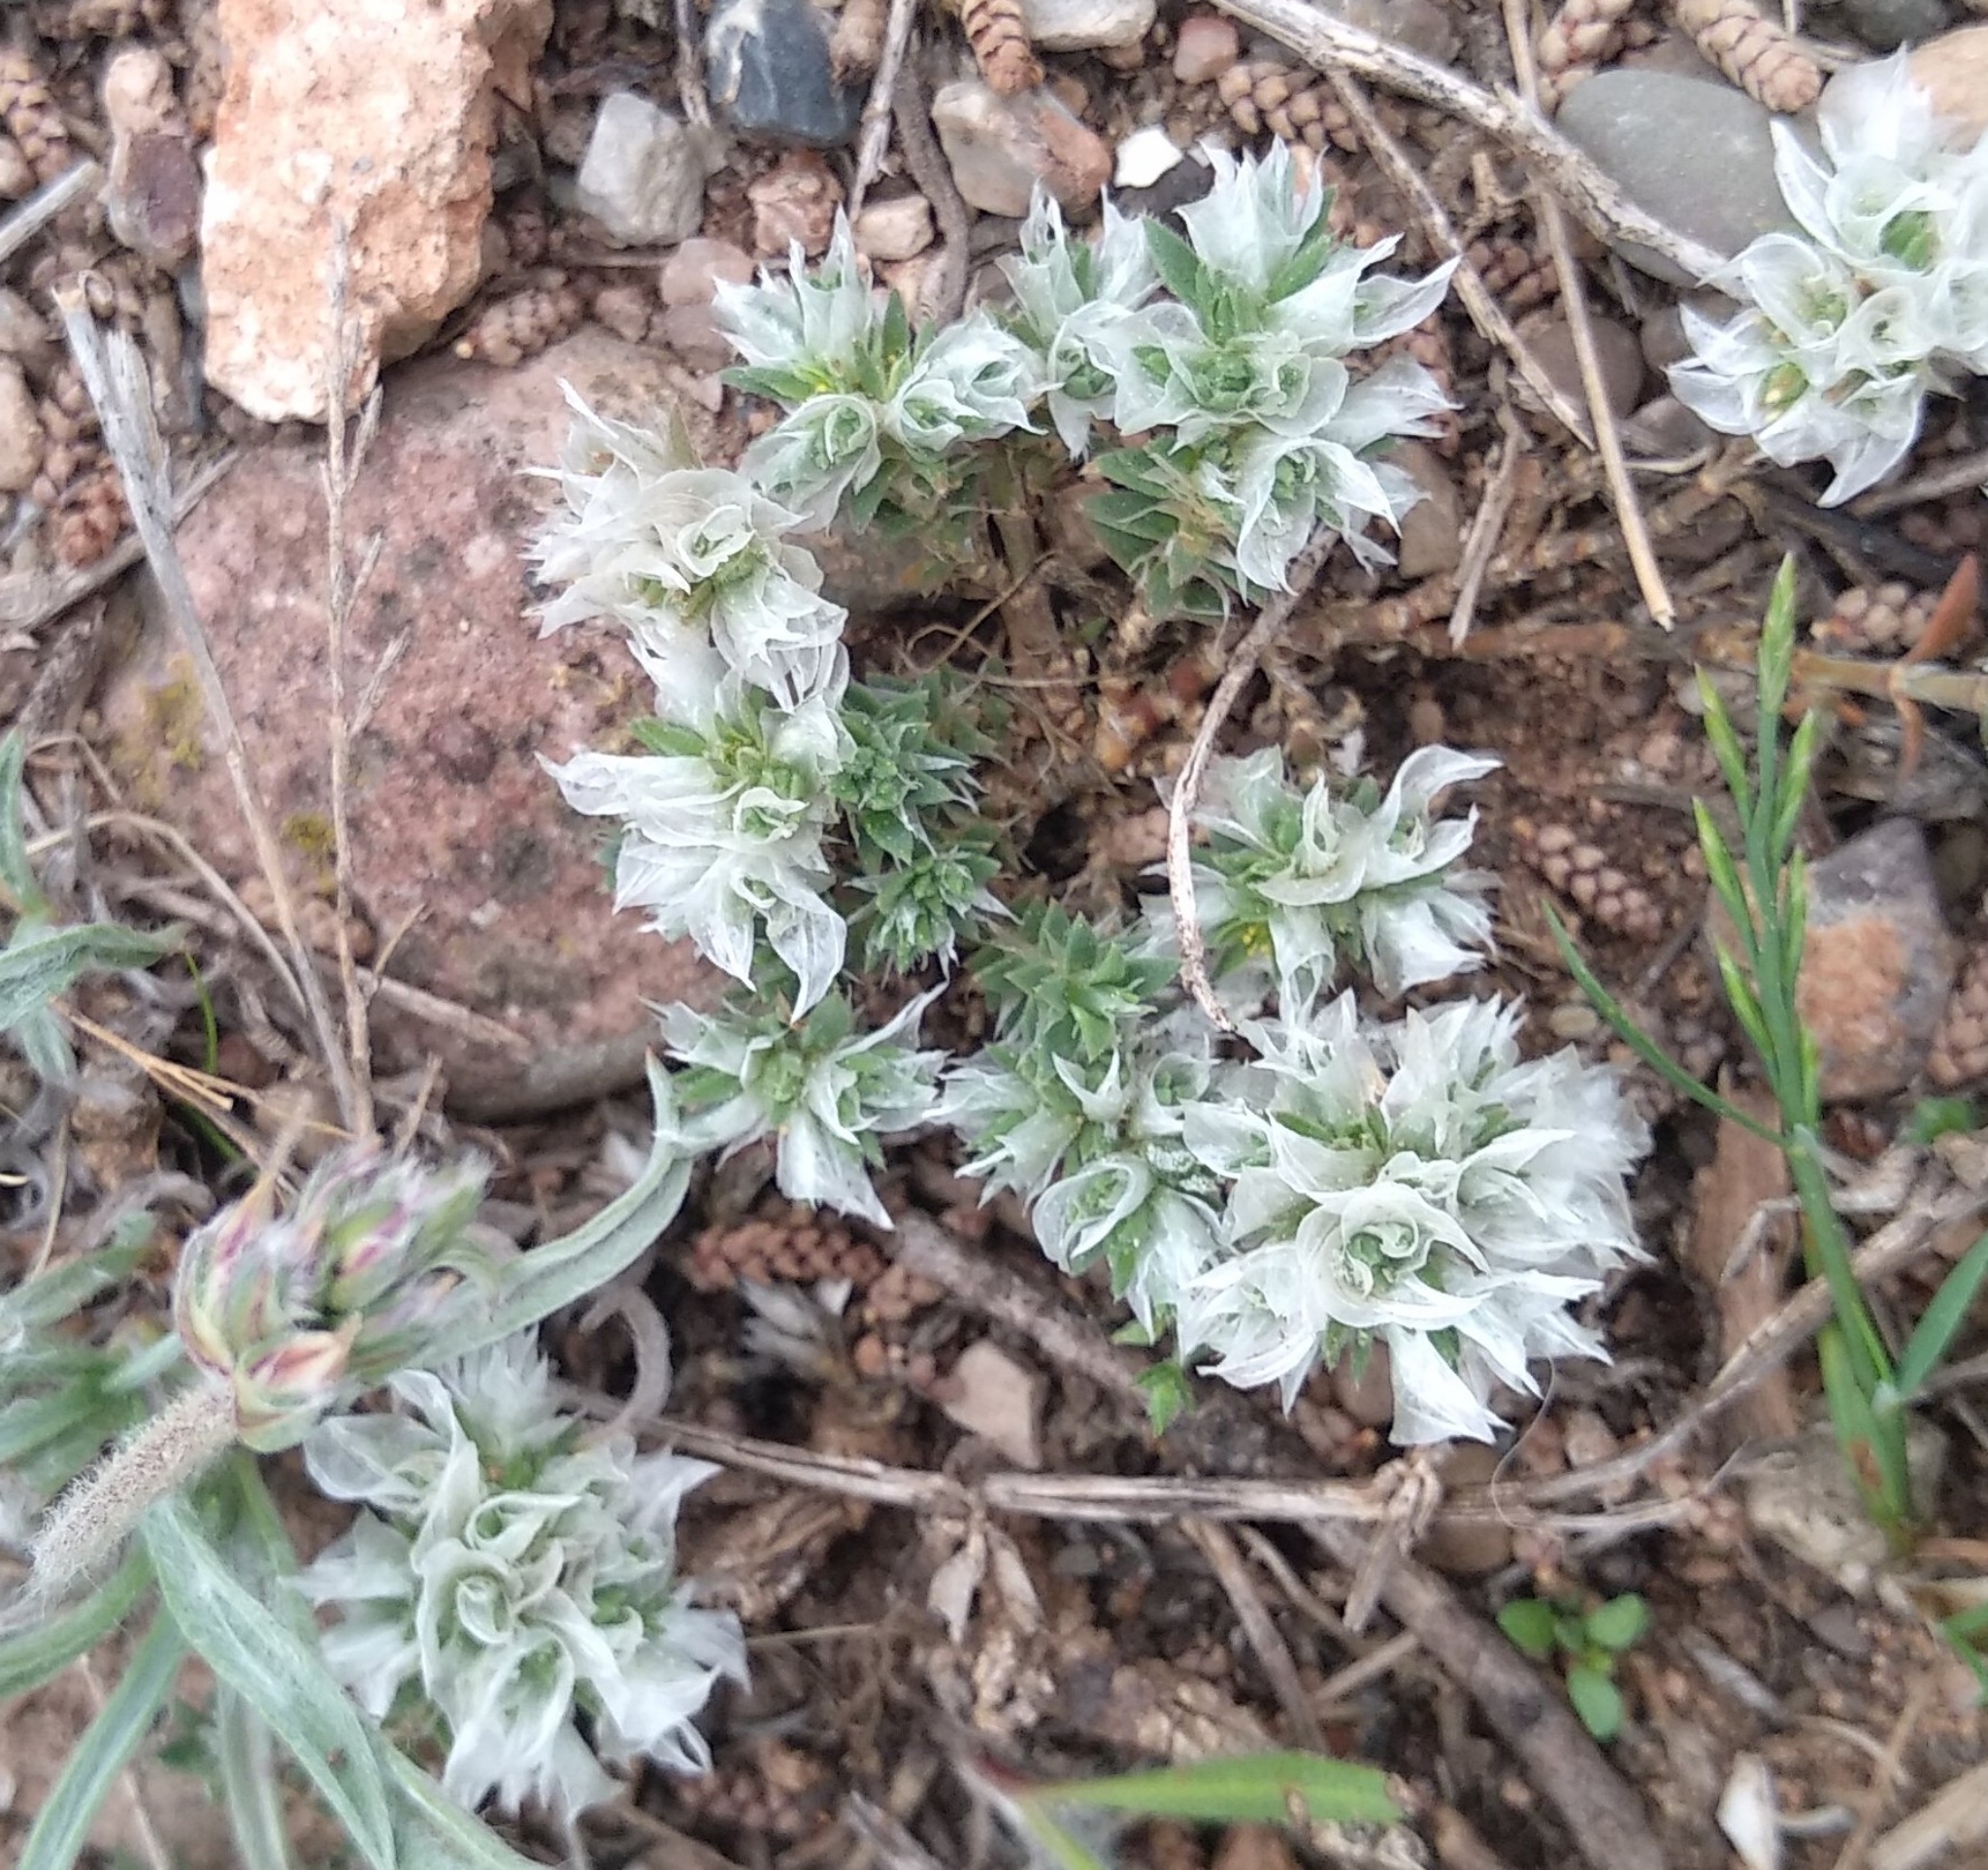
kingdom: Plantae
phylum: Tracheophyta
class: Magnoliopsida
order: Caryophyllales
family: Caryophyllaceae
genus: Paronychia
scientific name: Paronychia argentea
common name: Silver nailroot
